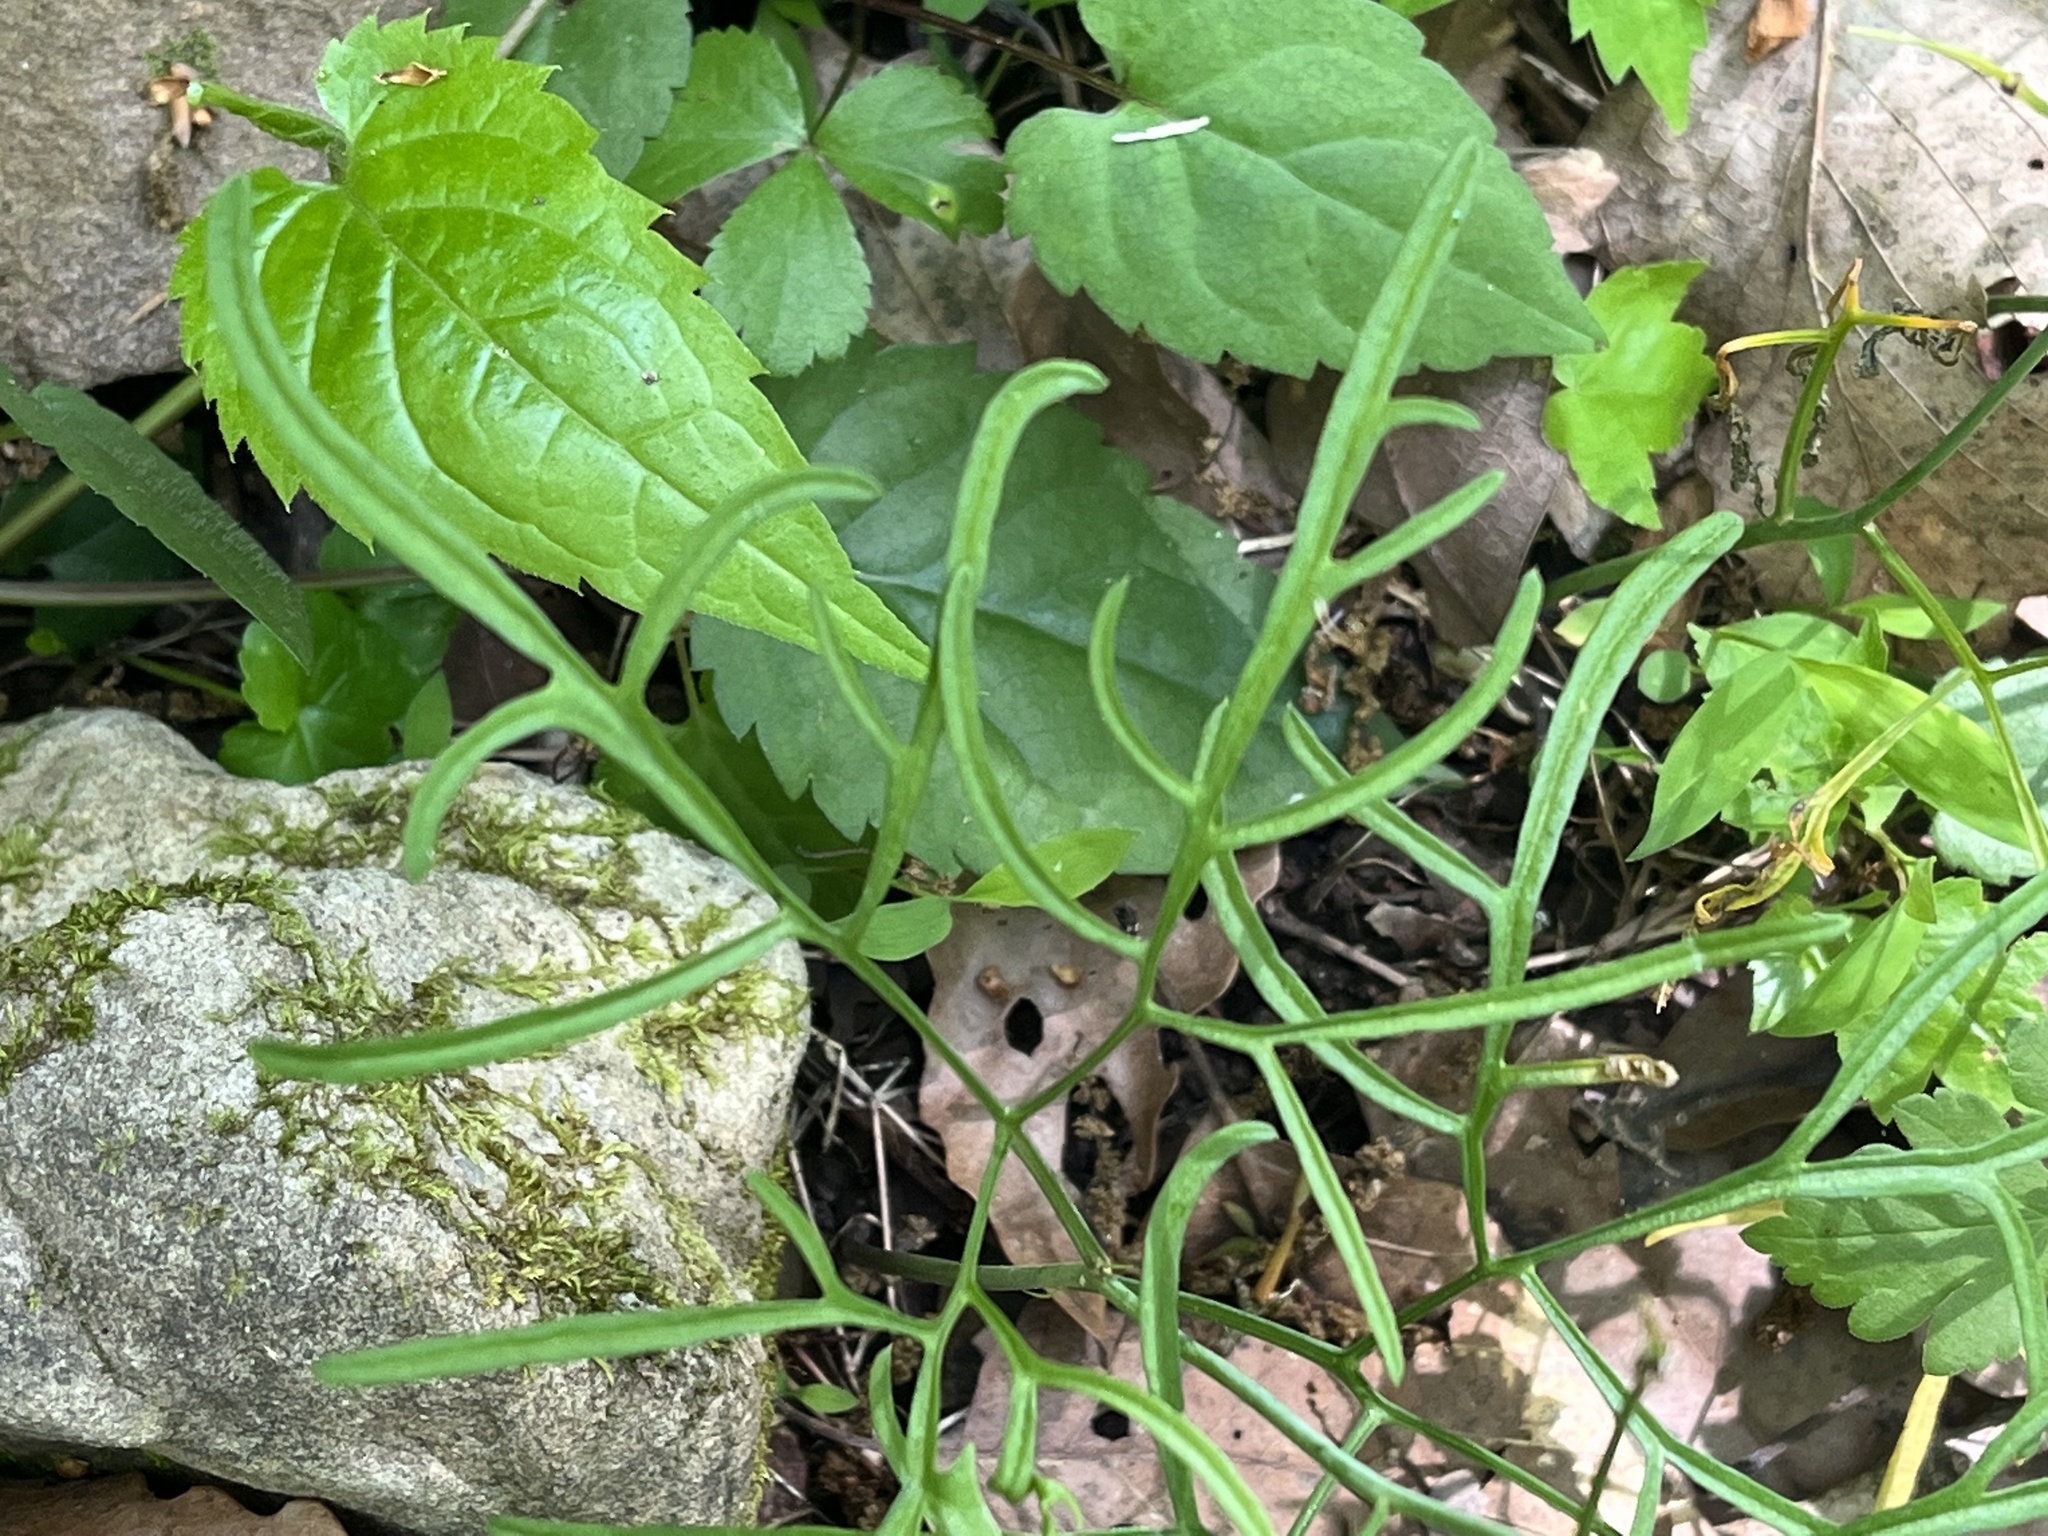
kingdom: Plantae
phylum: Tracheophyta
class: Magnoliopsida
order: Brassicales
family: Brassicaceae
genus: Cardamine
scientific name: Cardamine dissecta
